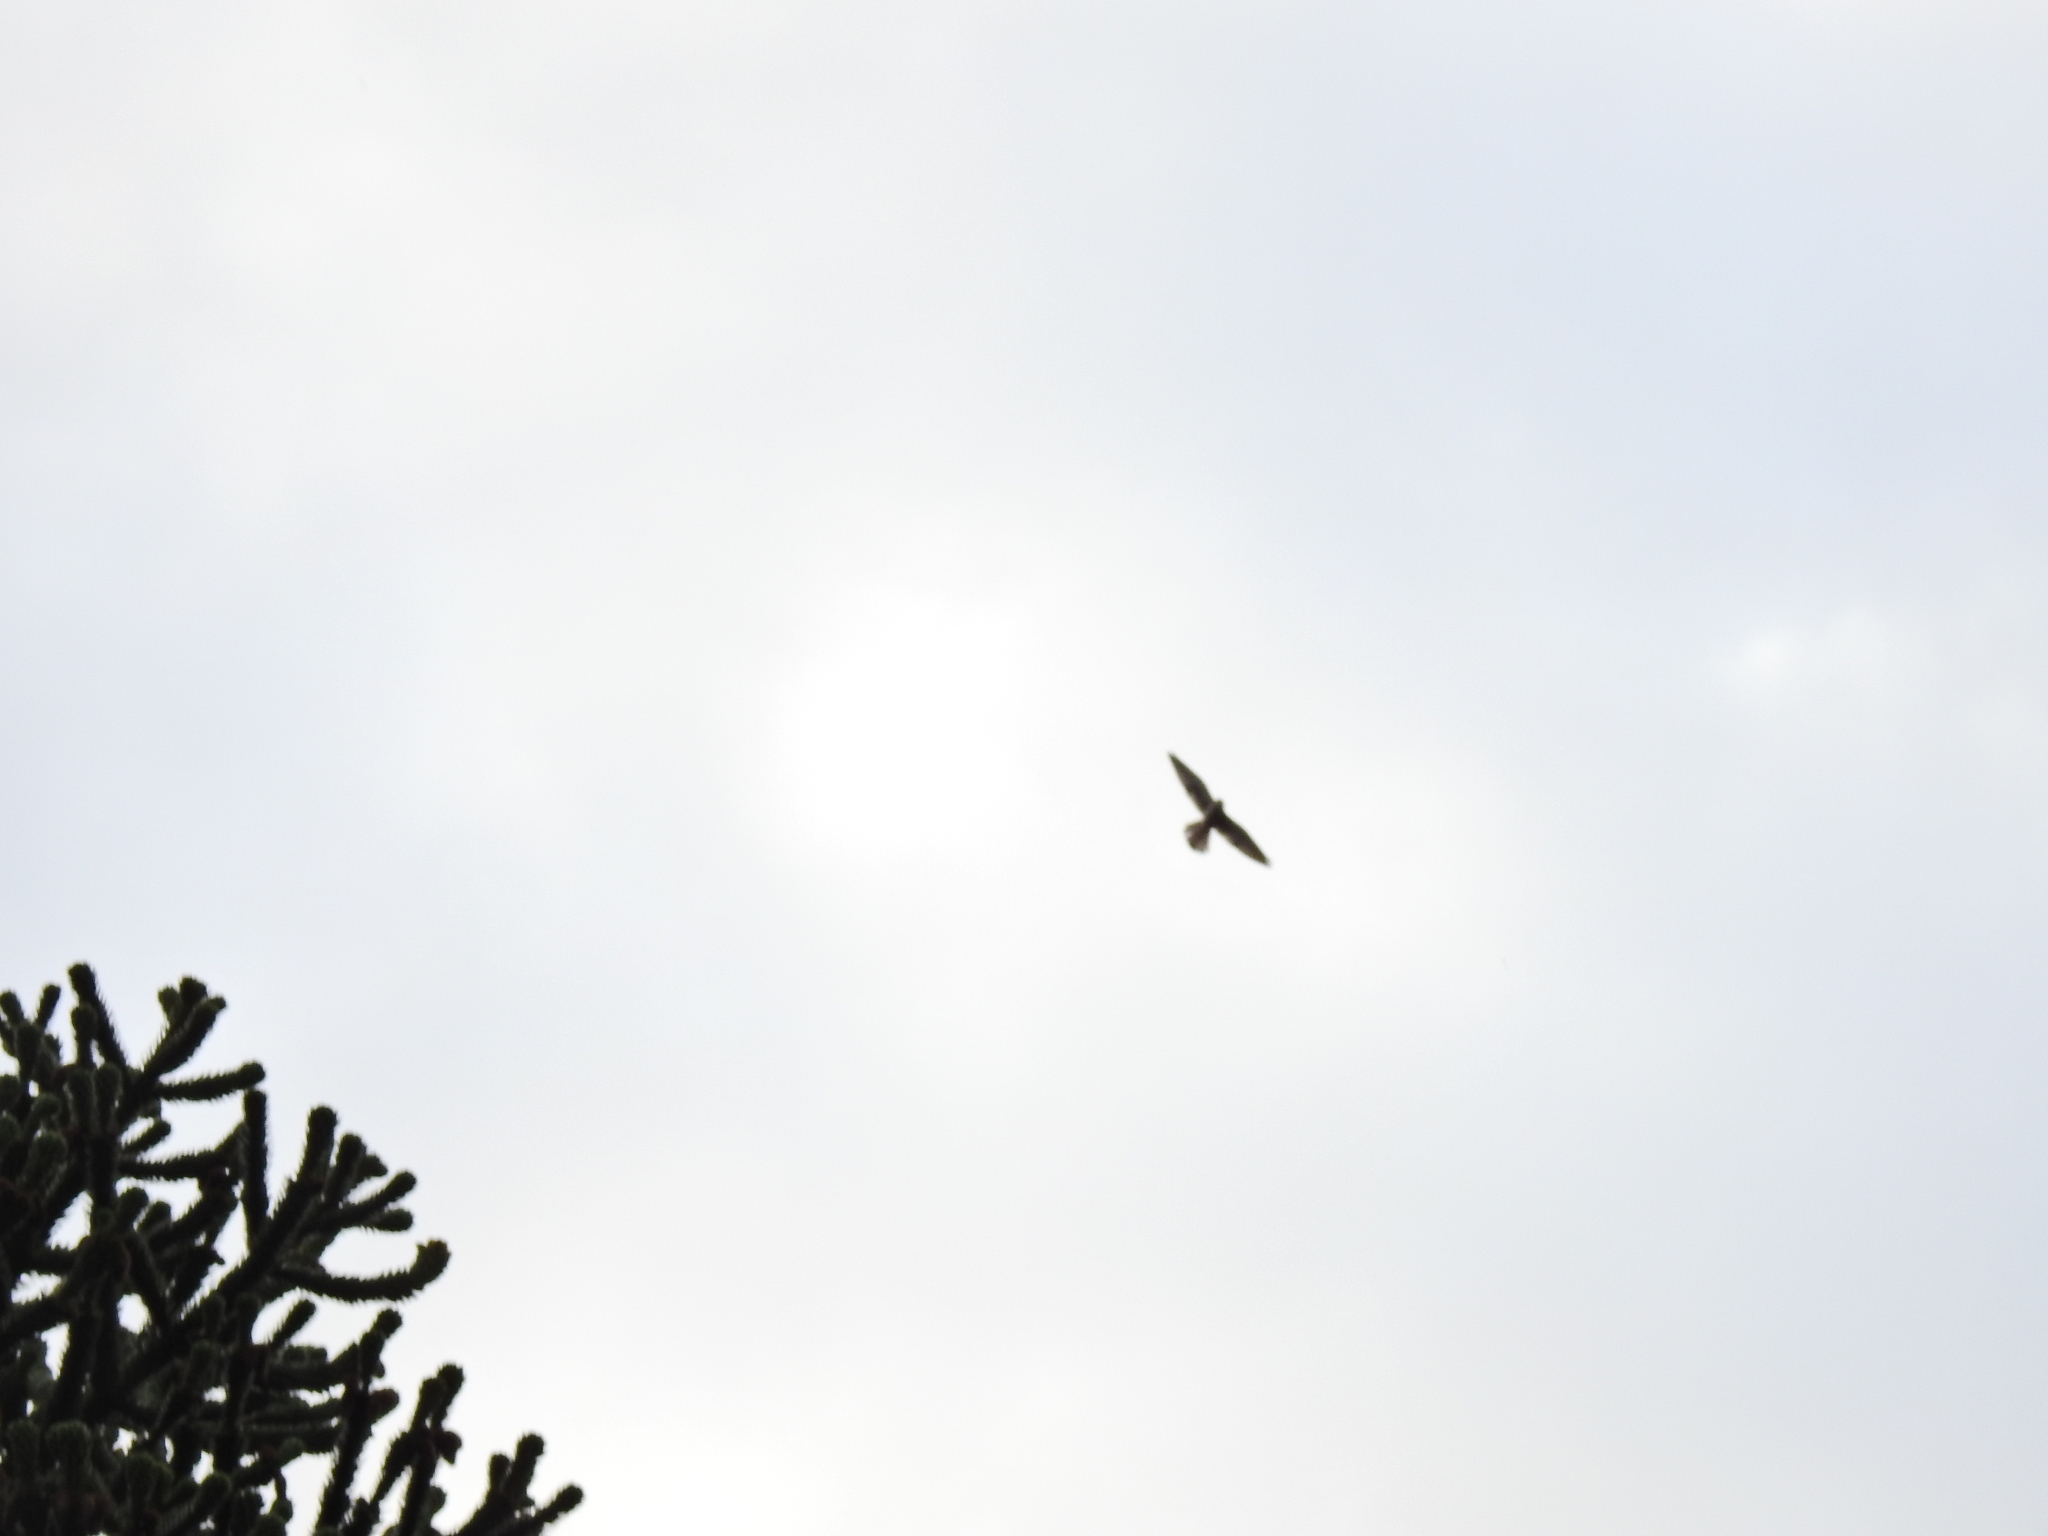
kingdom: Animalia
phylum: Chordata
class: Aves
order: Falconiformes
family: Falconidae
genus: Falco
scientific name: Falco tinnunculus
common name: Common kestrel
